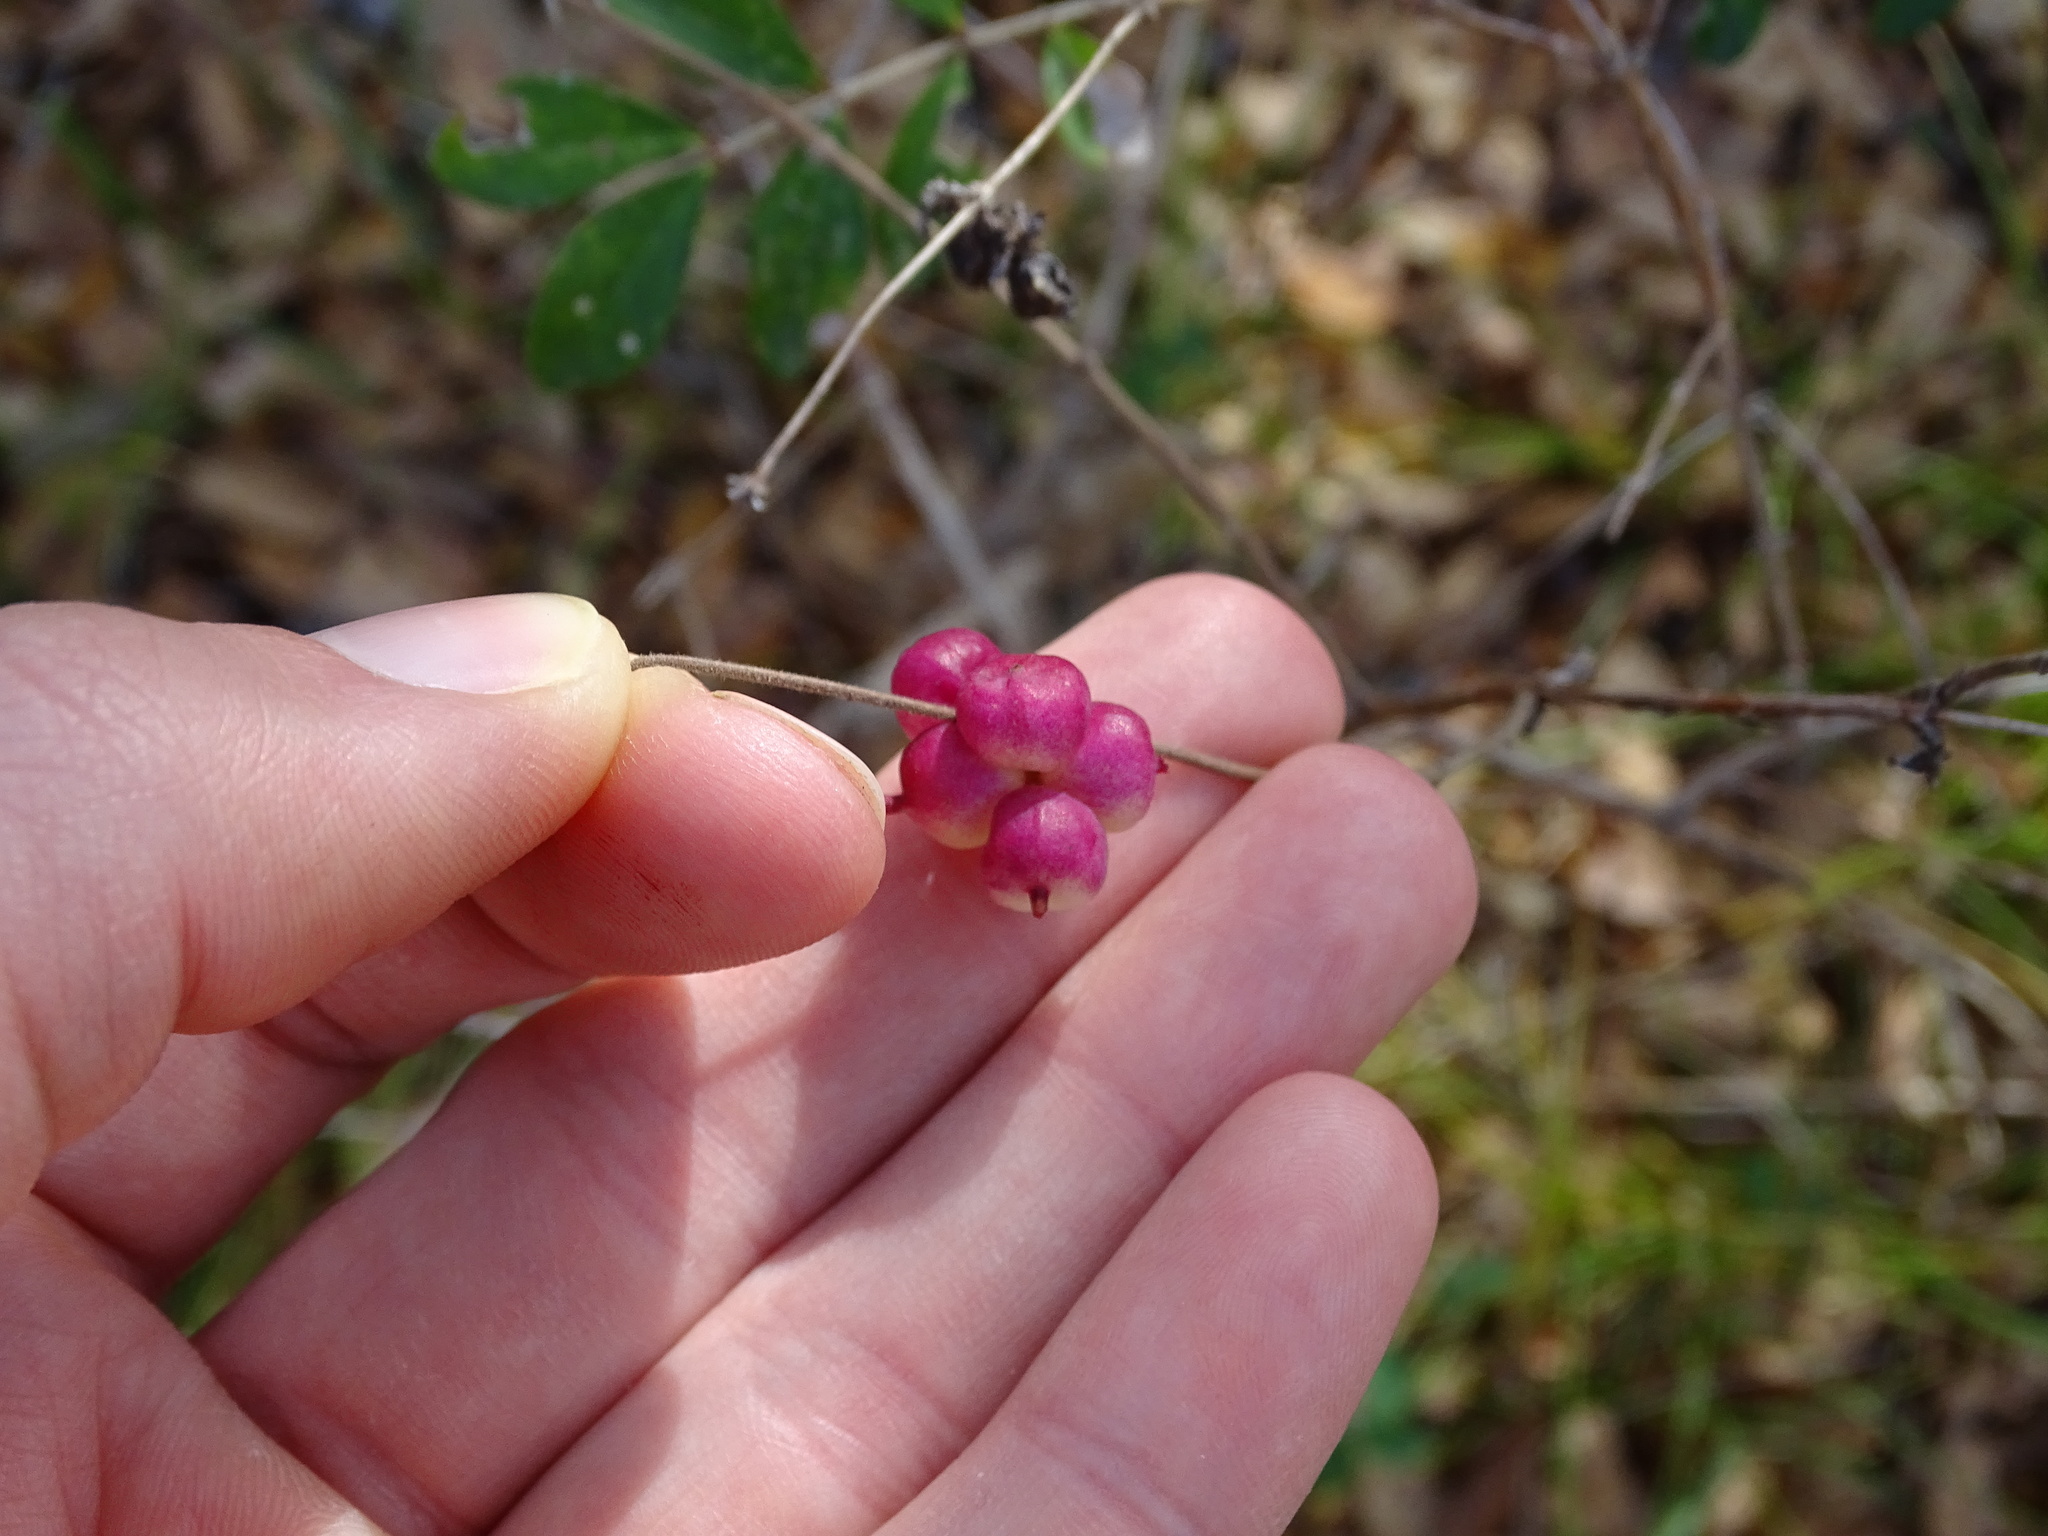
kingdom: Plantae
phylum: Tracheophyta
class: Magnoliopsida
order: Dipsacales
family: Caprifoliaceae
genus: Symphoricarpos
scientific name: Symphoricarpos orbiculatus
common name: Coralberry
